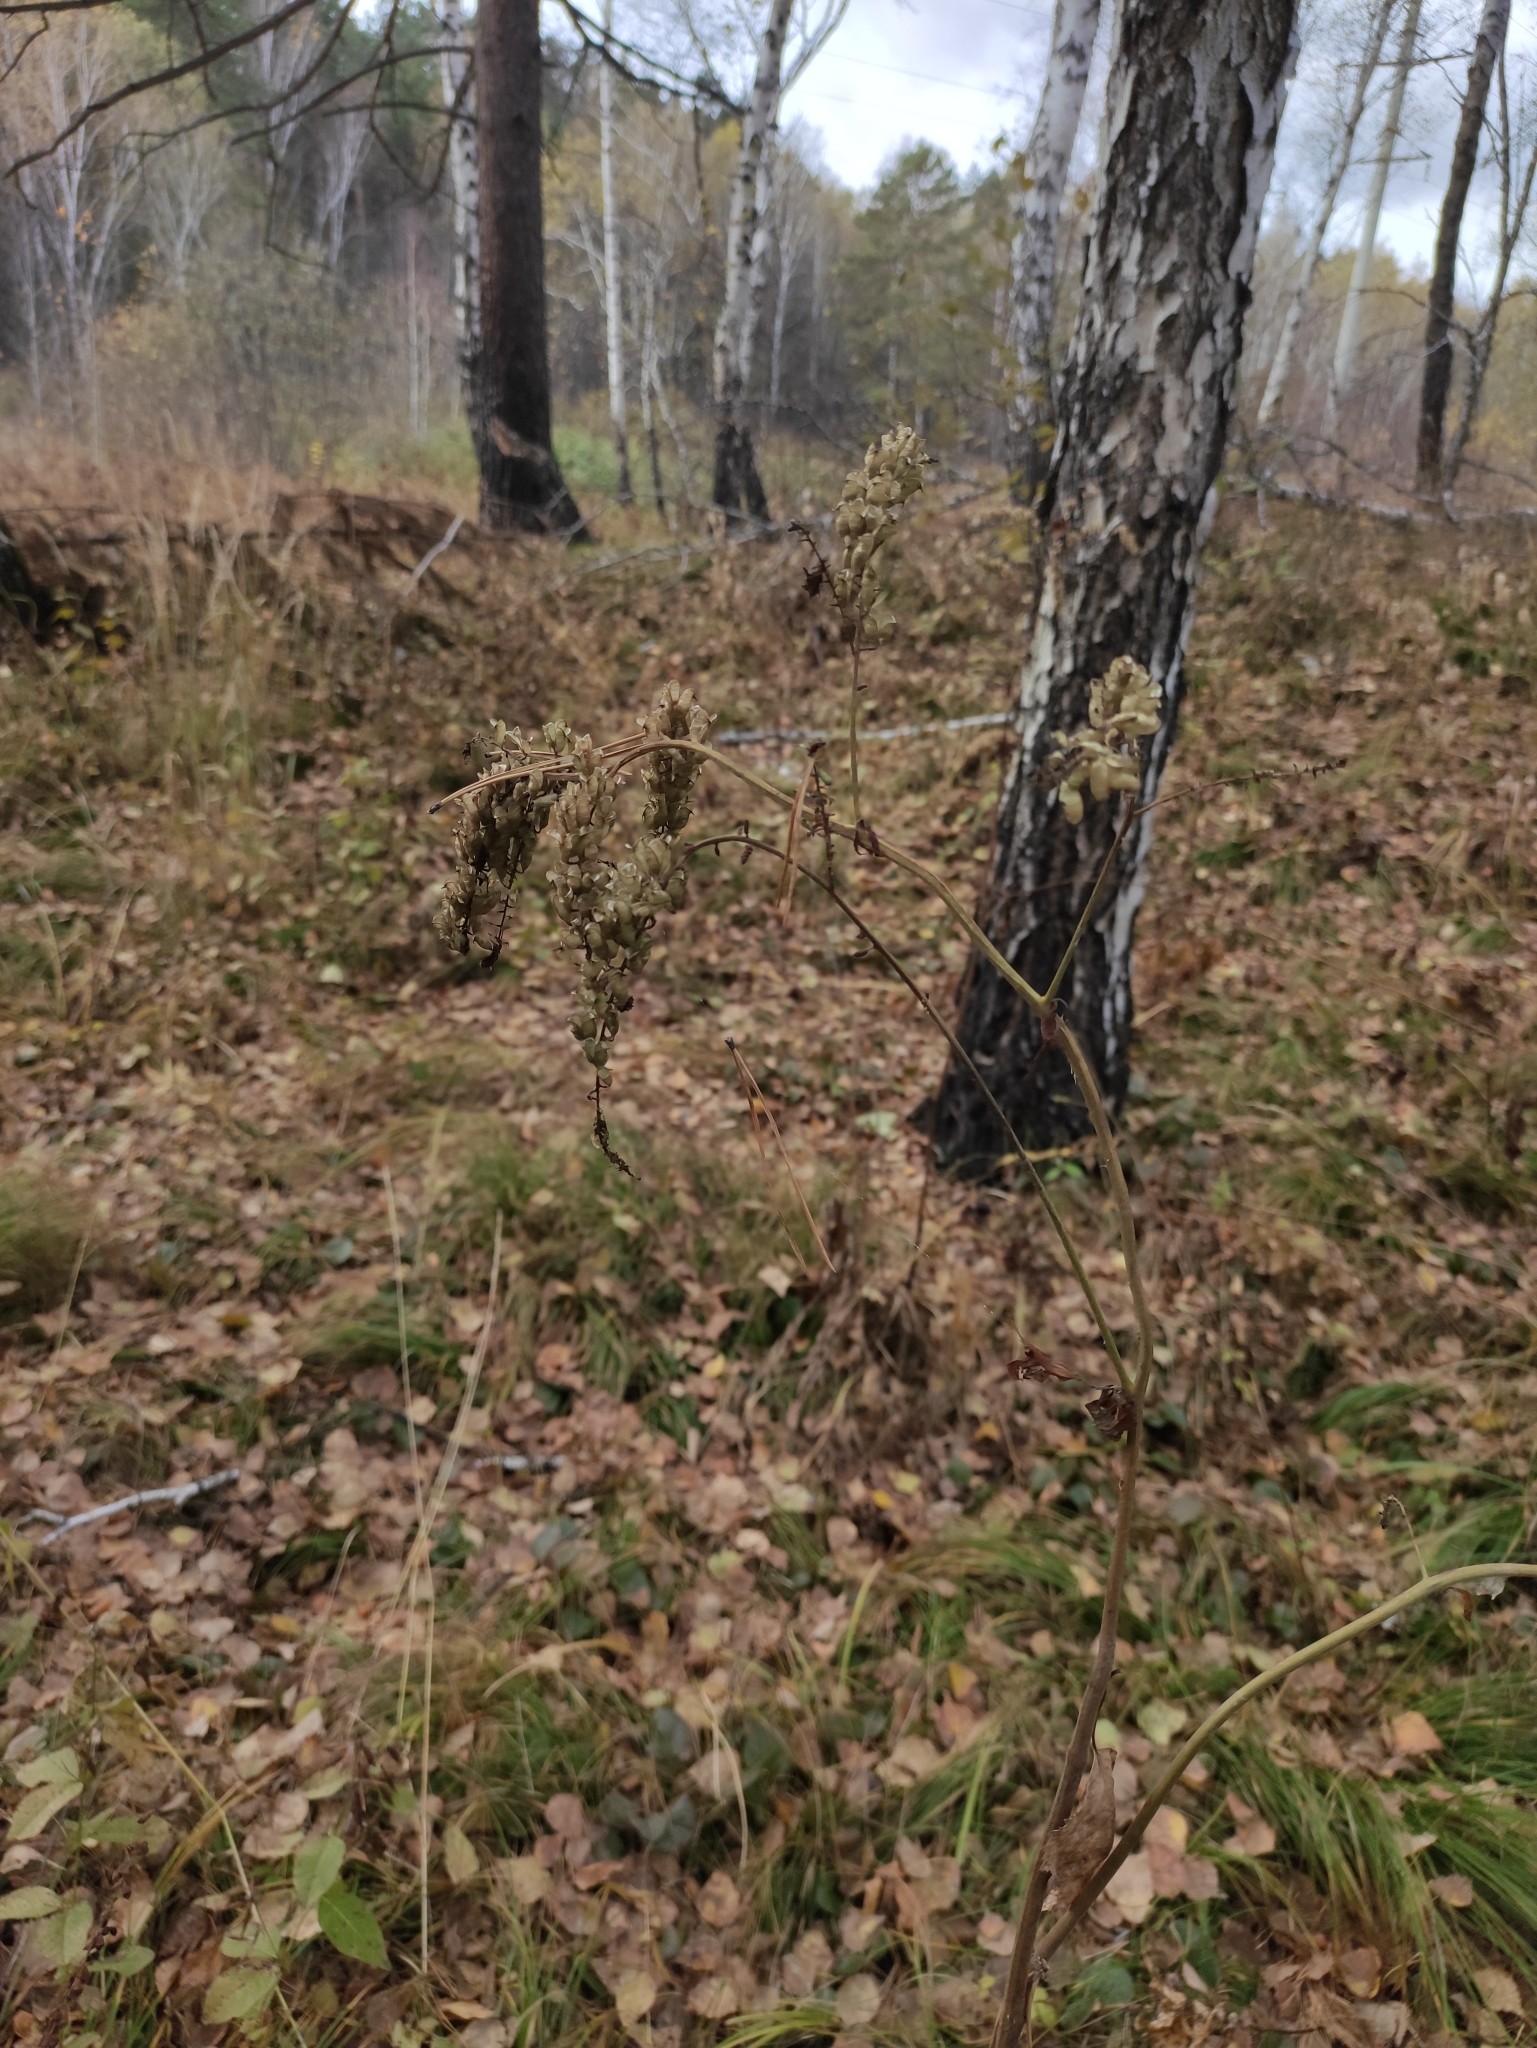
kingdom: Plantae
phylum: Tracheophyta
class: Magnoliopsida
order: Ranunculales
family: Ranunculaceae
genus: Actaea
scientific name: Actaea cimicifuga
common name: Chinese cimicifuga
